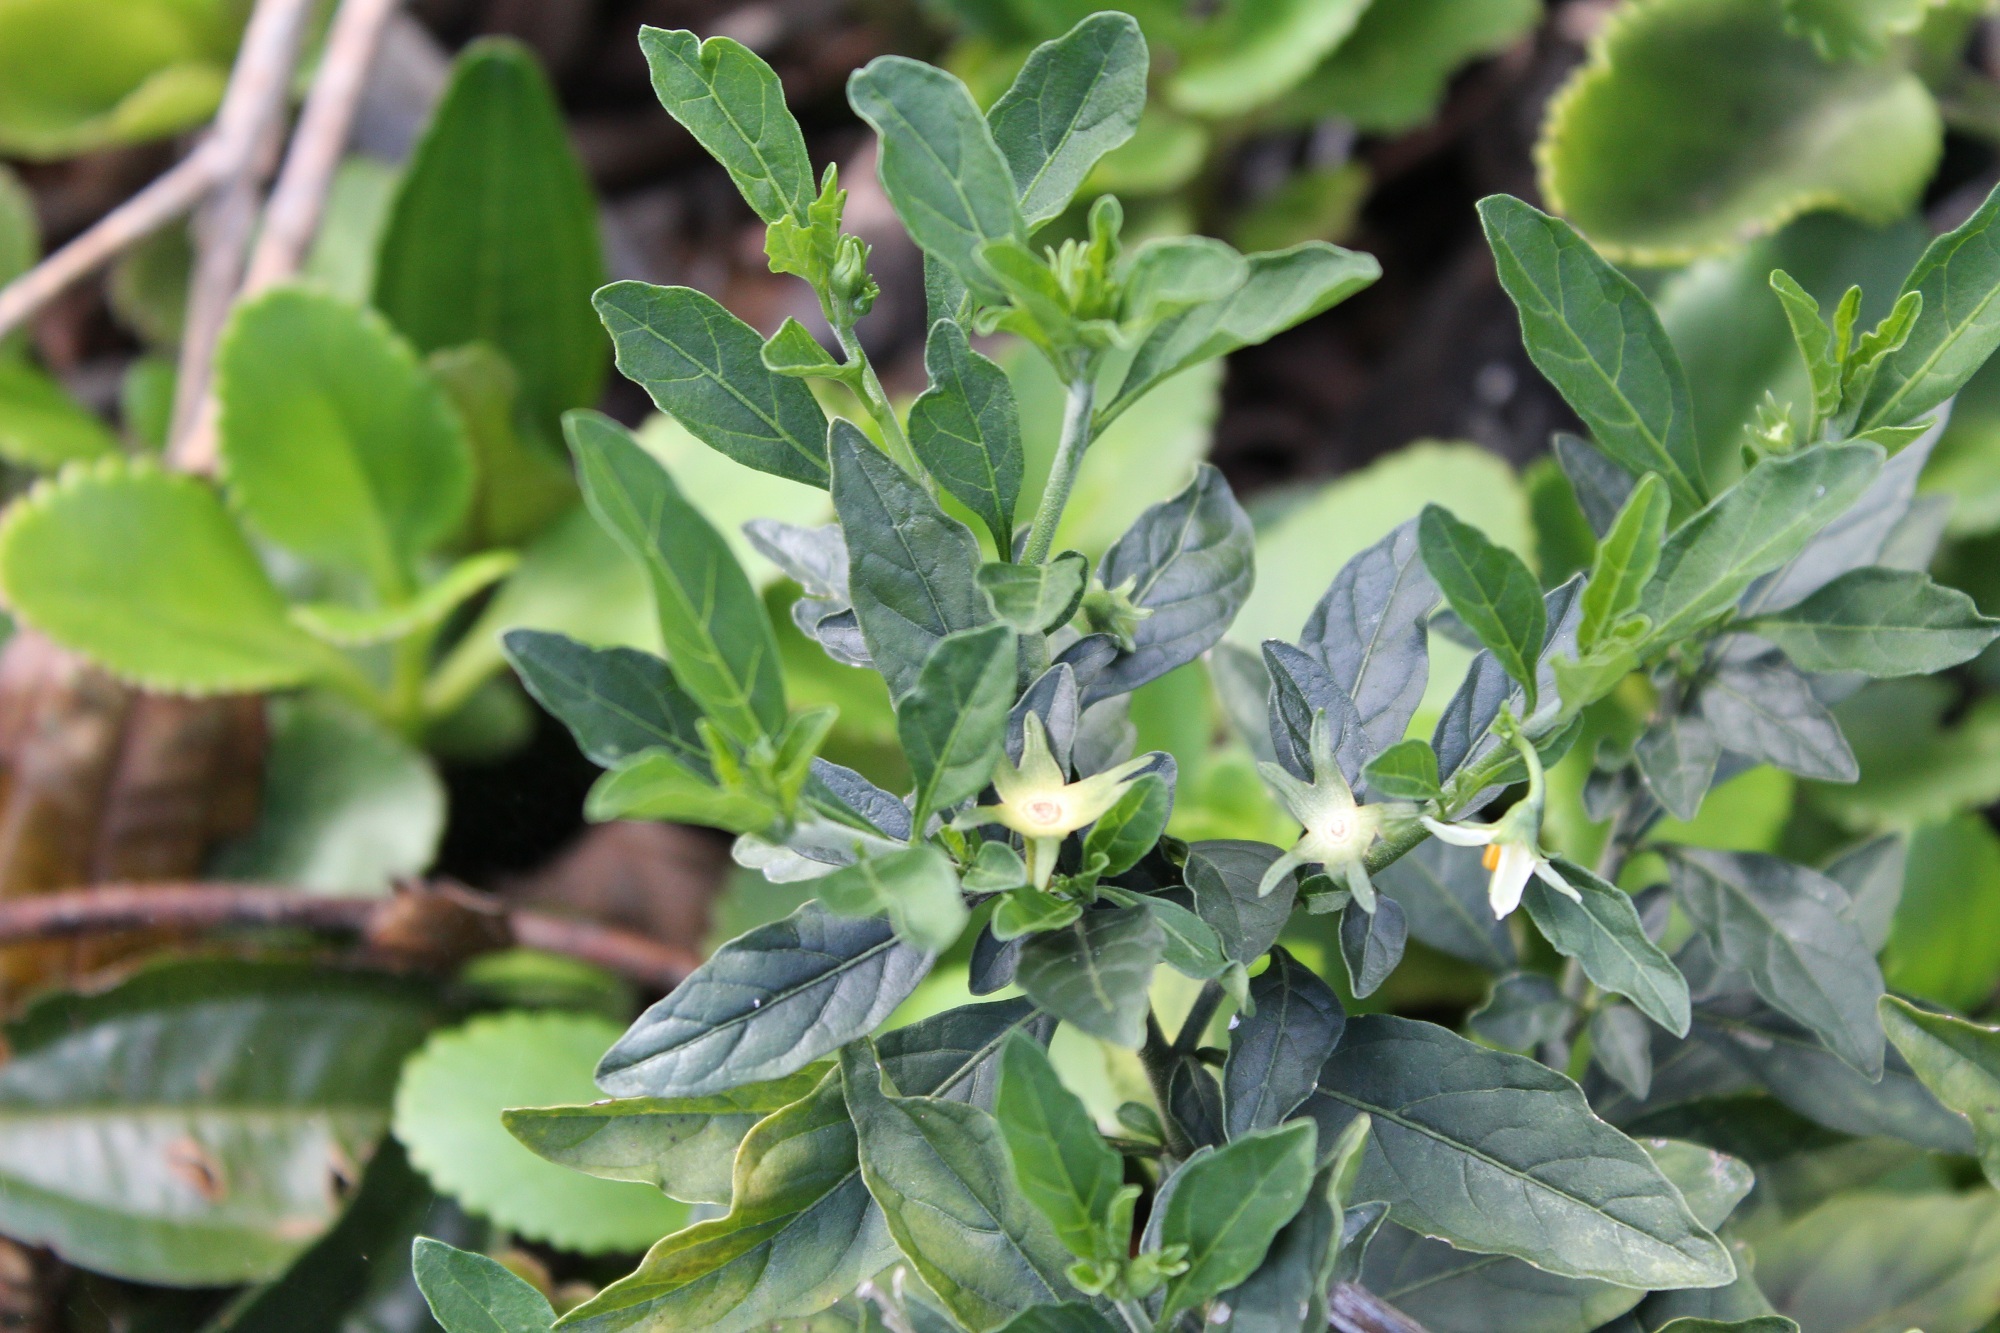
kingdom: Plantae
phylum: Tracheophyta
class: Magnoliopsida
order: Solanales
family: Solanaceae
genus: Solanum
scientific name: Solanum pseudocapsicum
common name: Jerusalem cherry
